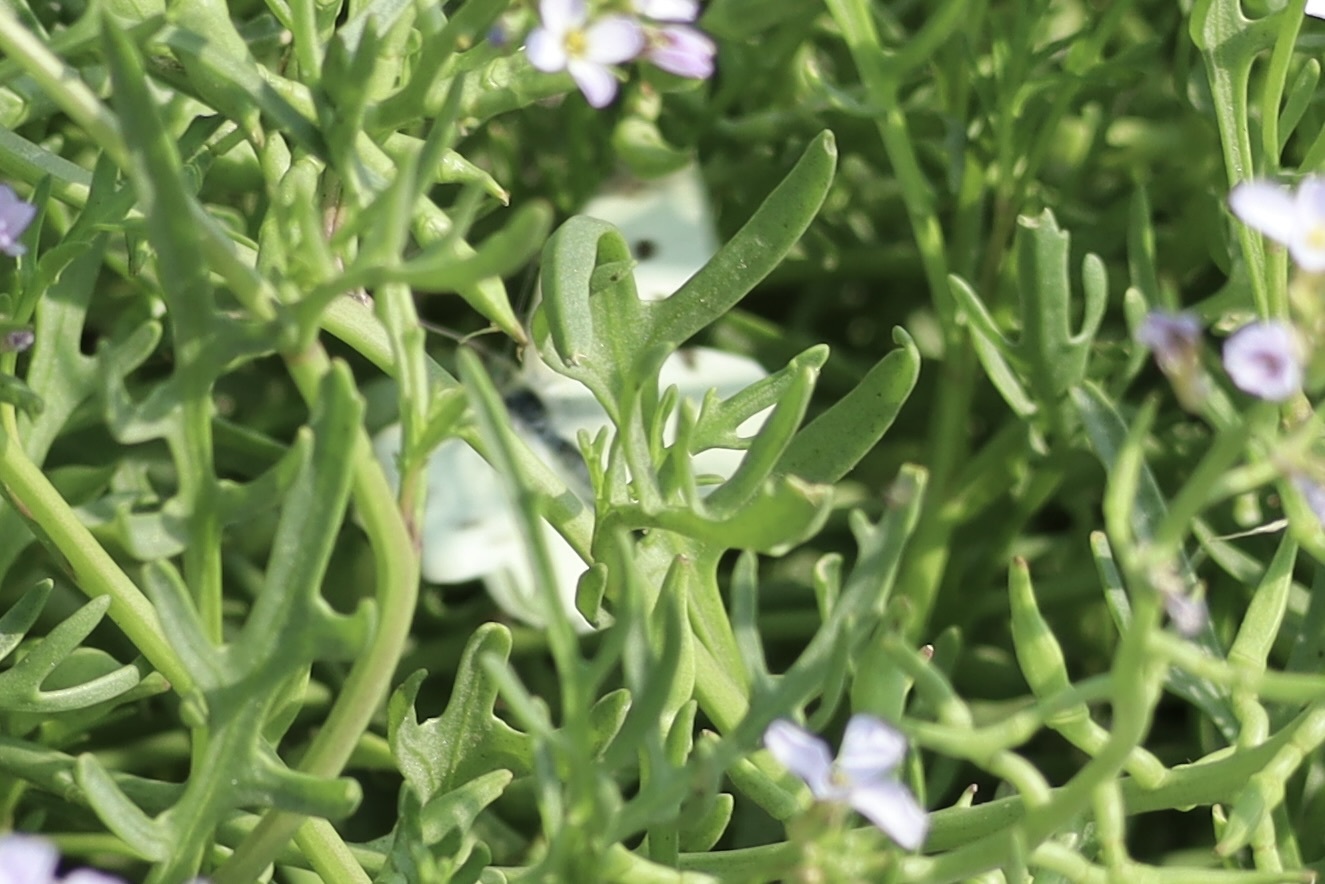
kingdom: Animalia
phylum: Arthropoda
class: Insecta
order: Lepidoptera
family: Pieridae
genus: Pieris
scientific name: Pieris rapae
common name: Small white
